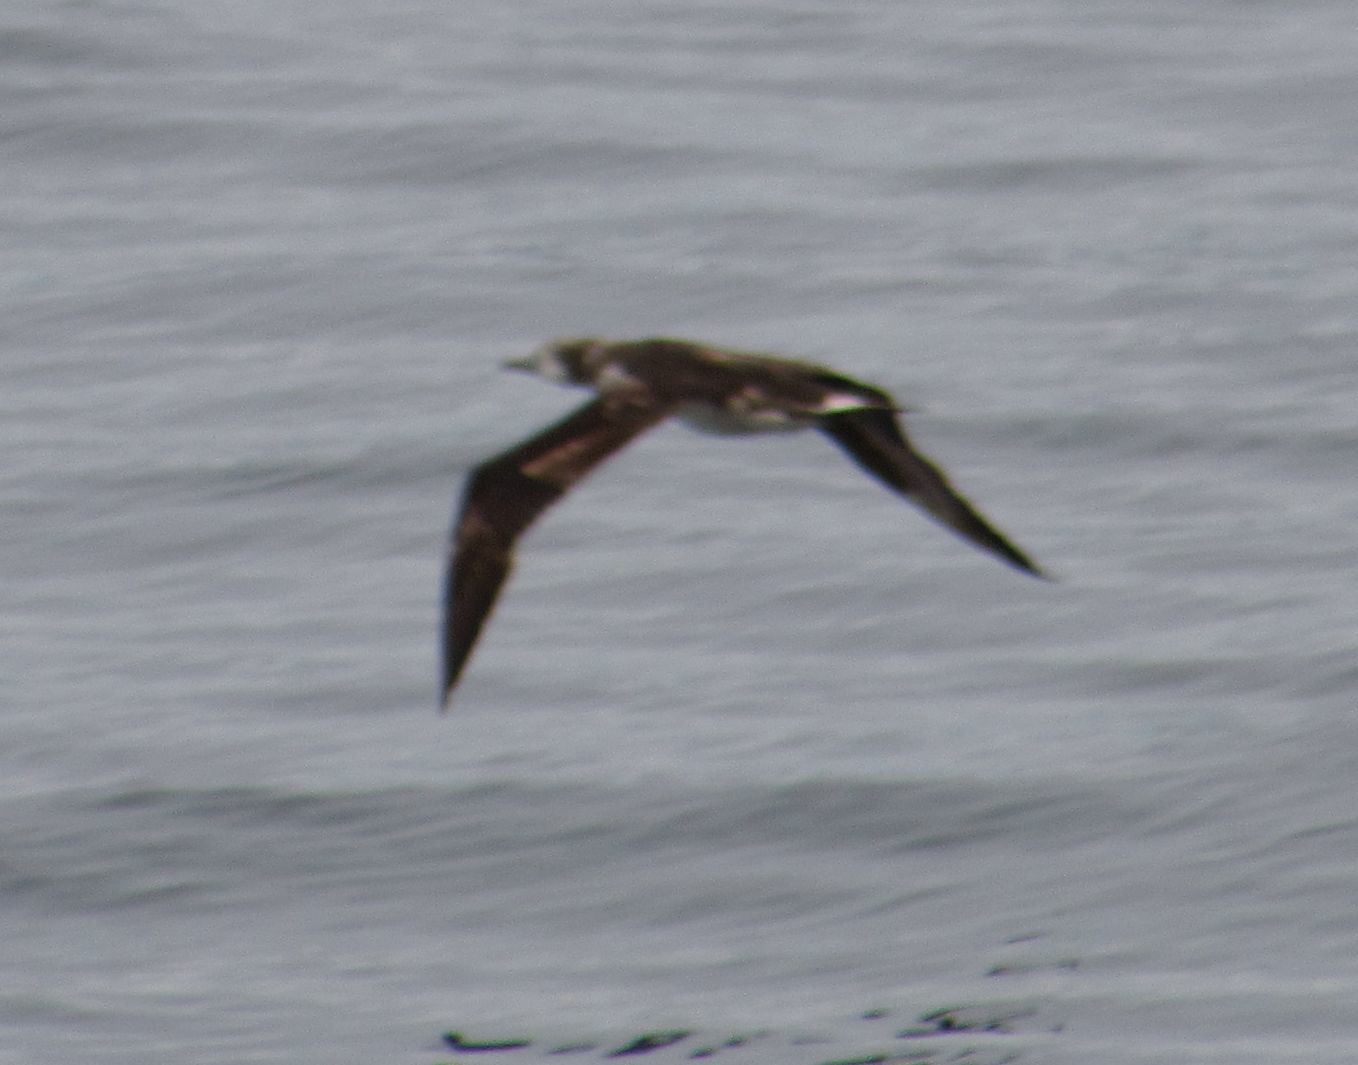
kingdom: Animalia
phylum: Chordata
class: Aves
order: Suliformes
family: Sulidae
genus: Morus
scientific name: Morus bassanus
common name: Northern gannet
